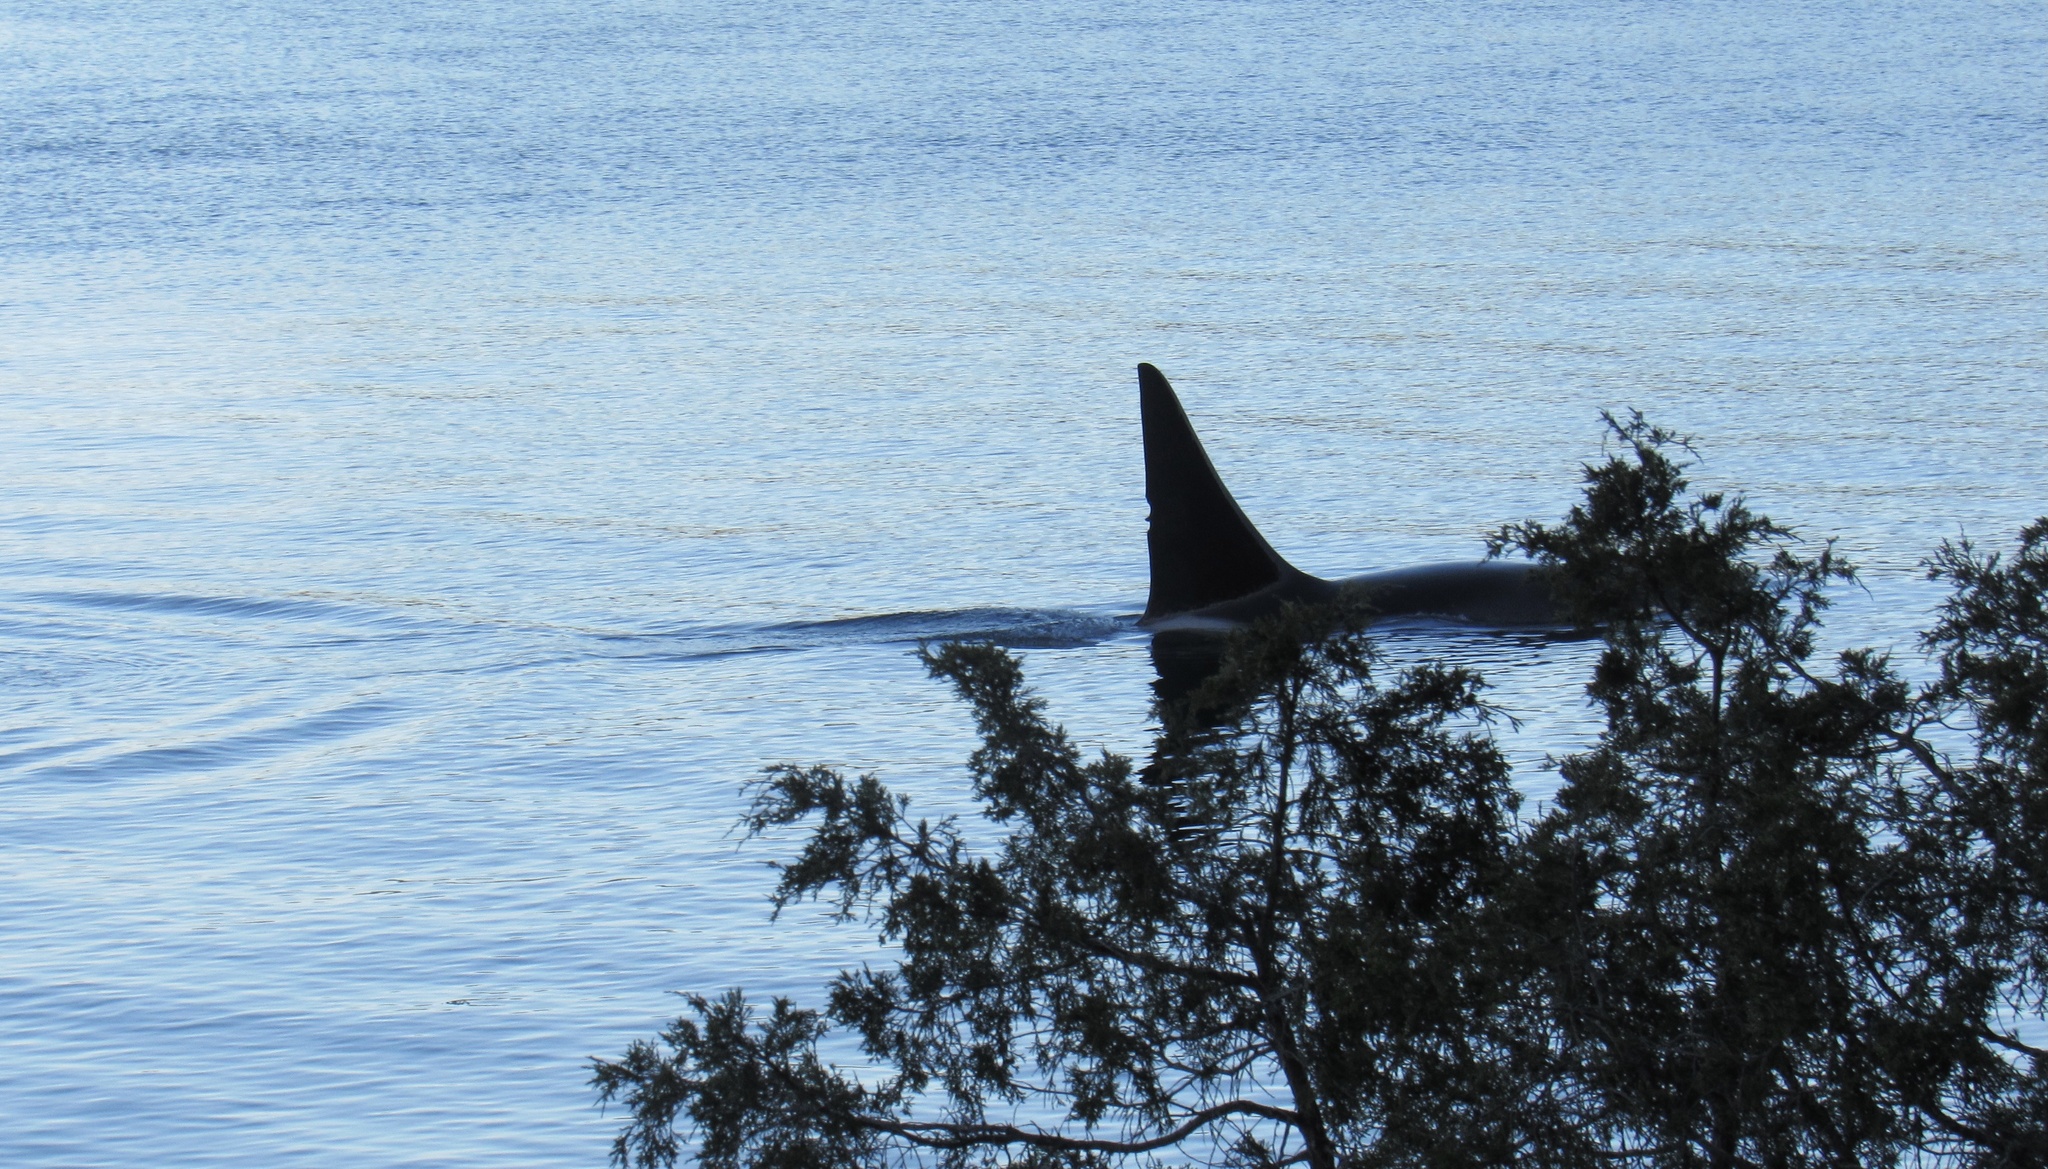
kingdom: Animalia
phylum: Chordata
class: Mammalia
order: Cetacea
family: Delphinidae
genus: Orcinus
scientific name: Orcinus orca
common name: Killer whale
